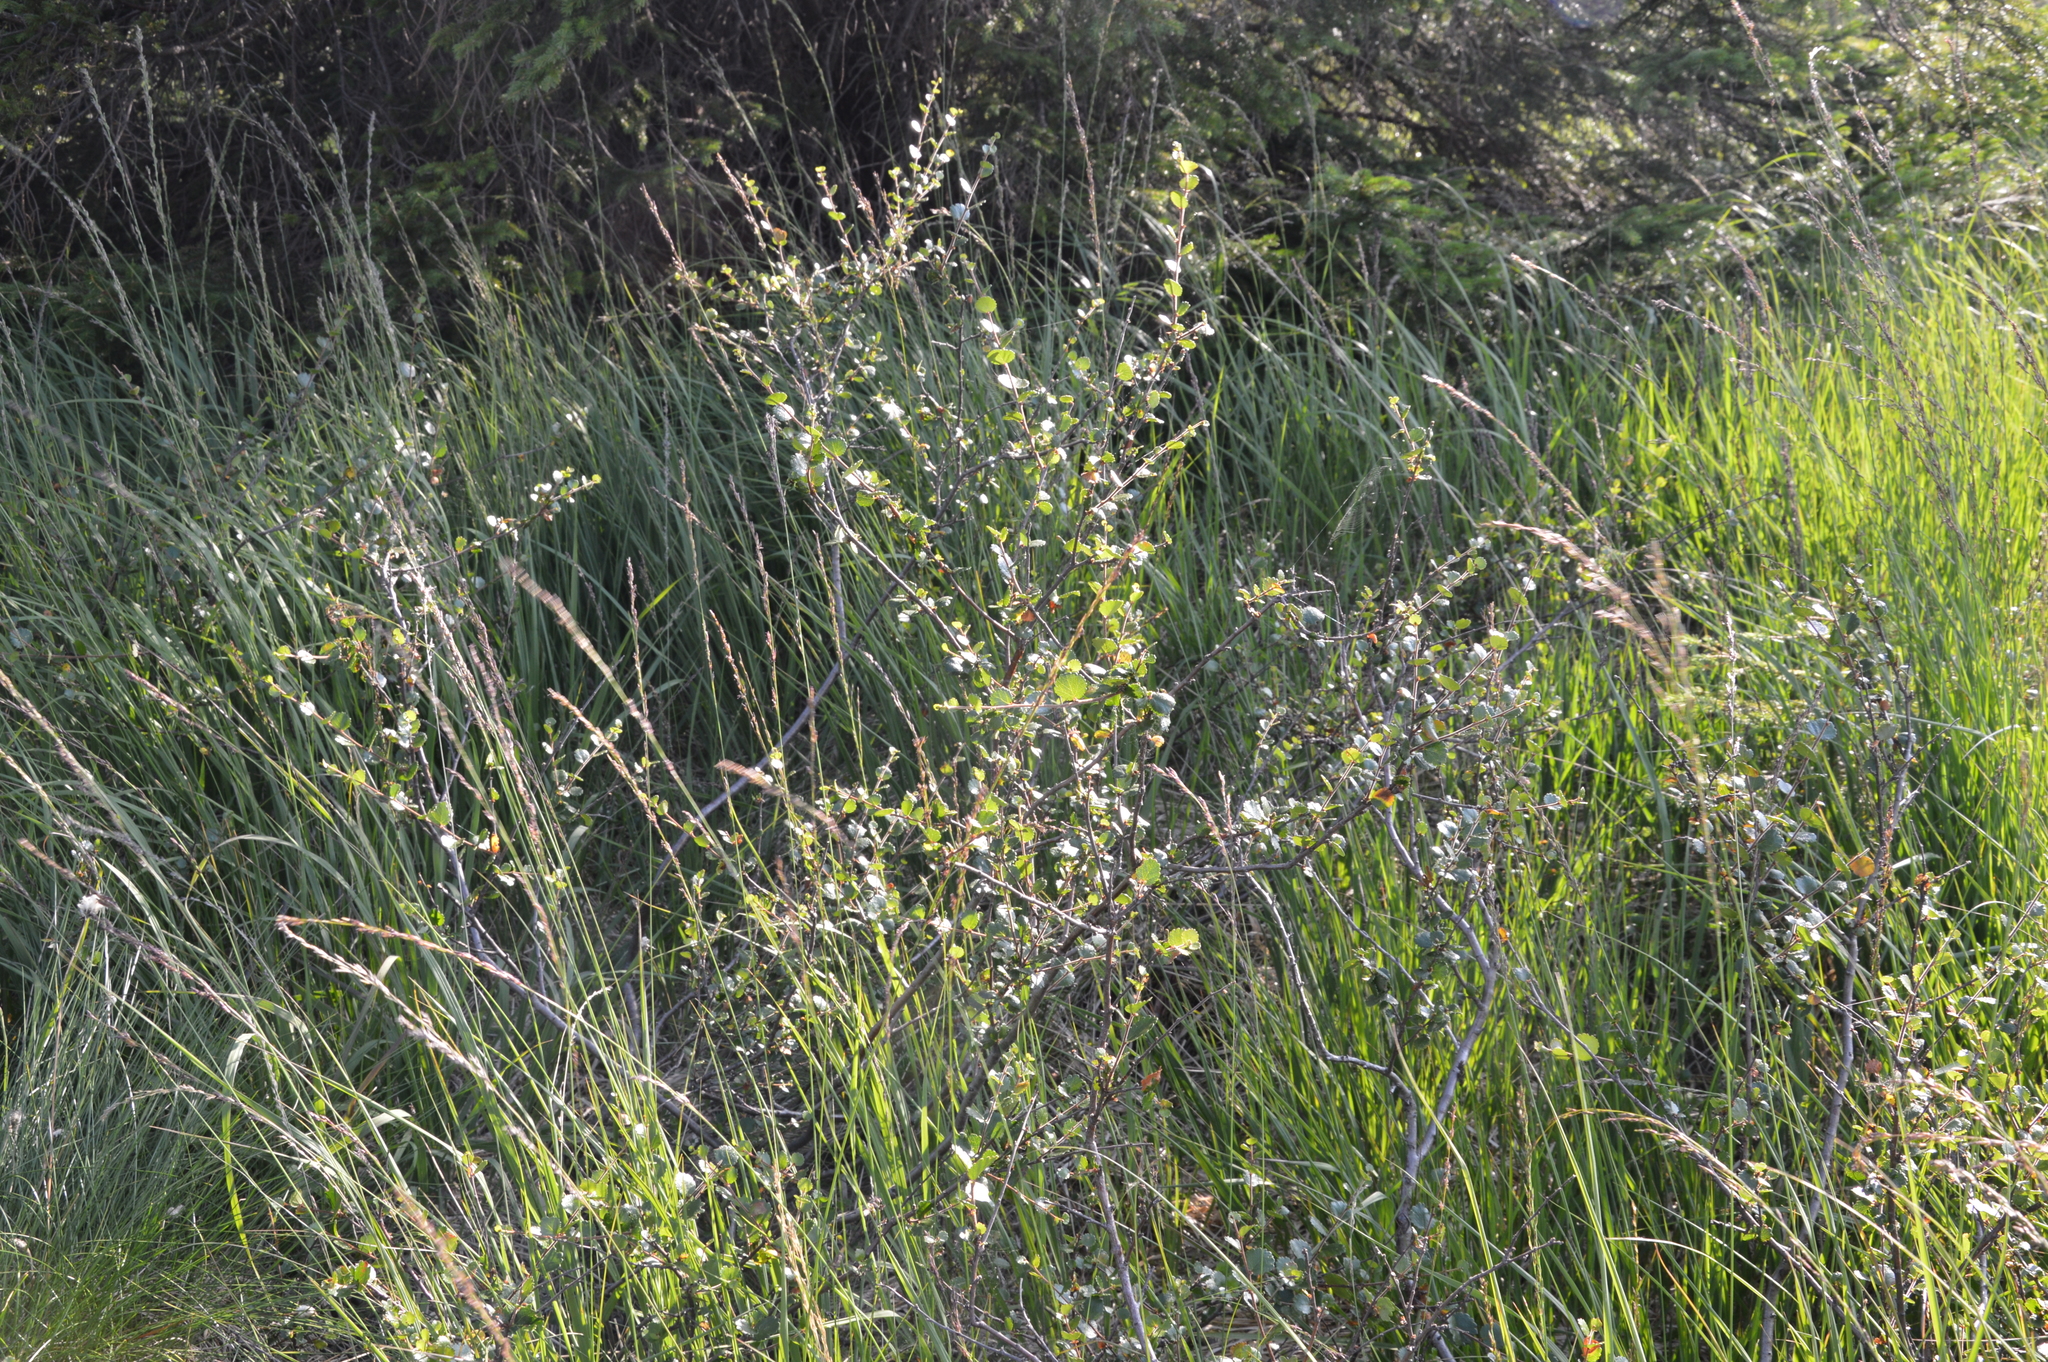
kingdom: Plantae
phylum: Tracheophyta
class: Magnoliopsida
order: Fagales
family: Betulaceae
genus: Betula
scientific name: Betula nana
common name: Arctic dwarf birch
